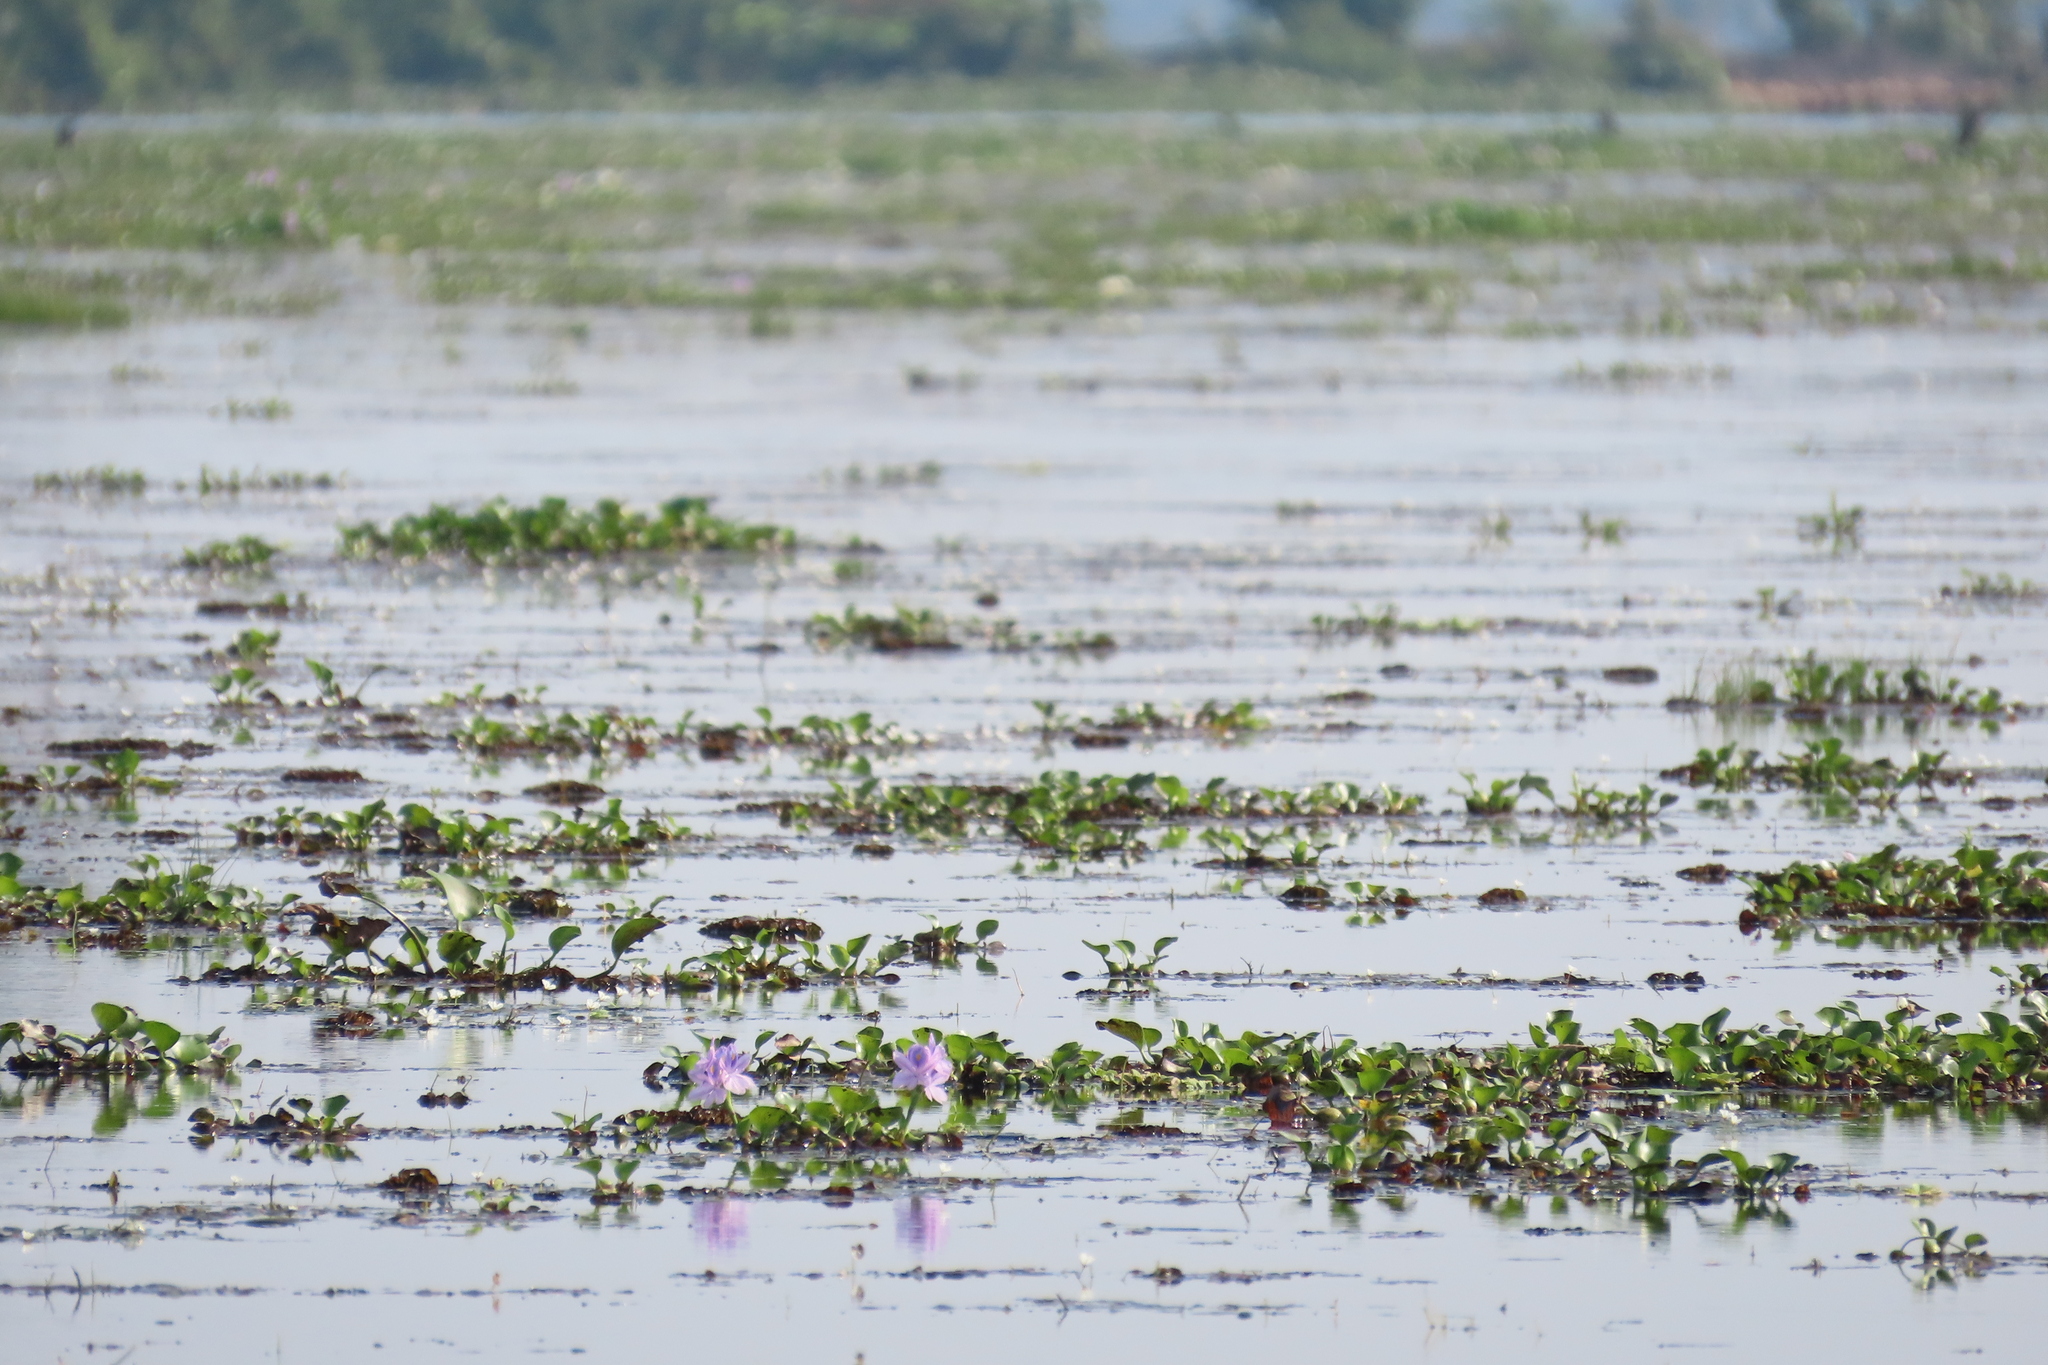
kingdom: Plantae
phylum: Tracheophyta
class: Liliopsida
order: Commelinales
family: Pontederiaceae
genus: Pontederia
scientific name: Pontederia crassipes
